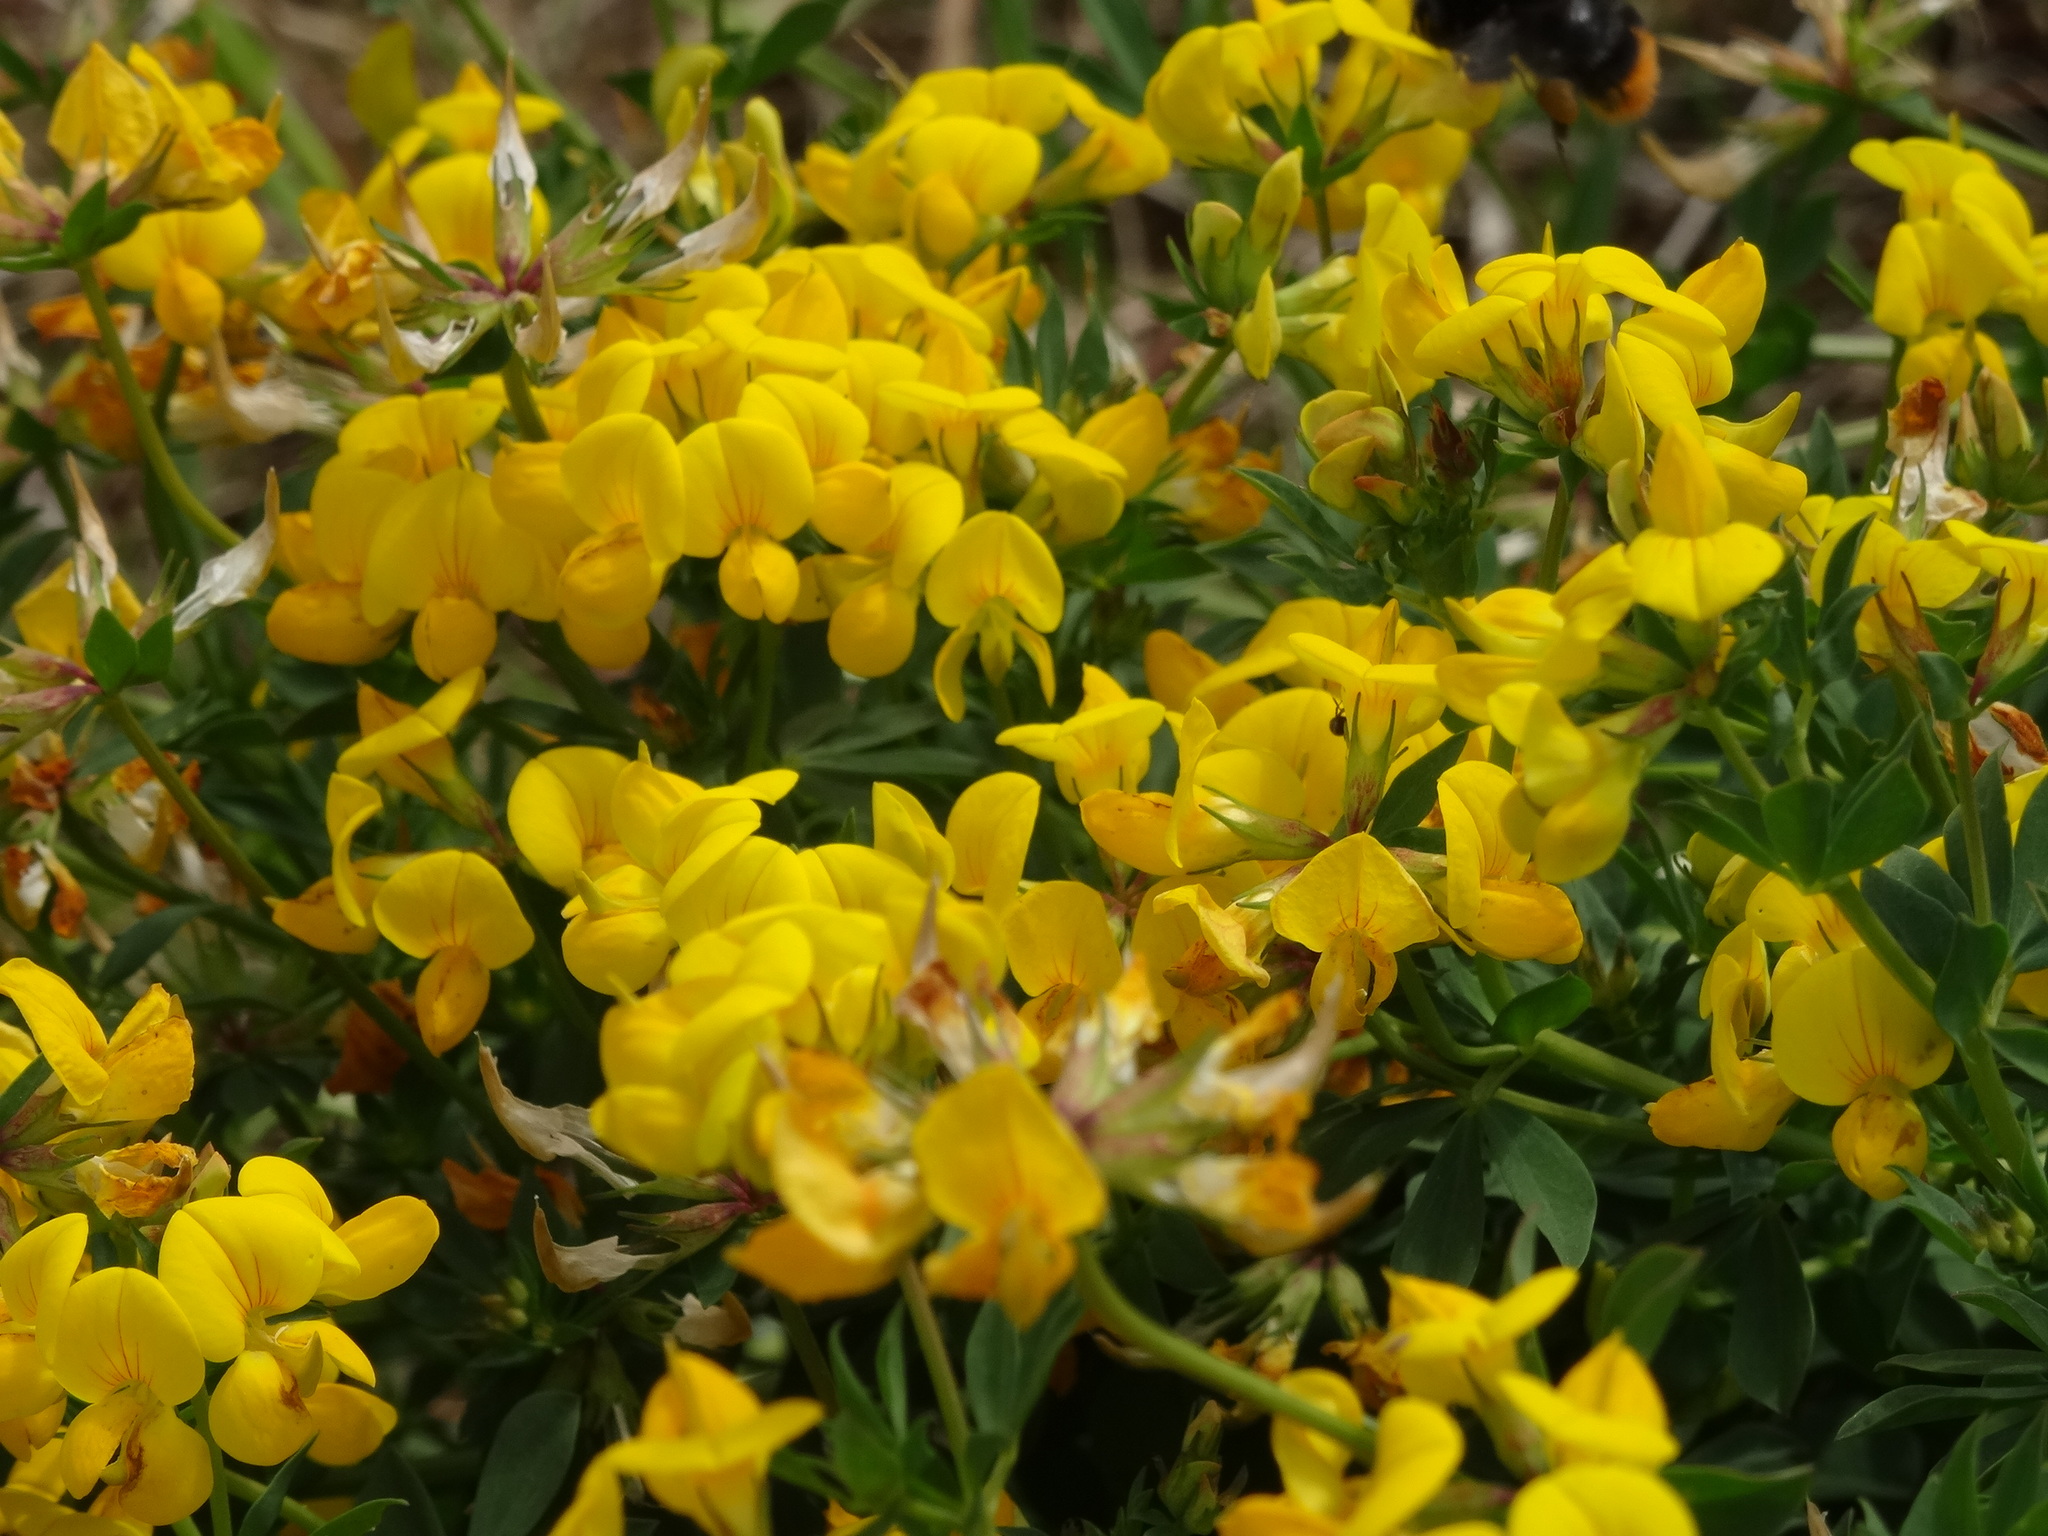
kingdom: Plantae
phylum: Tracheophyta
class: Magnoliopsida
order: Fabales
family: Fabaceae
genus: Lotus
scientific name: Lotus corniculatus
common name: Common bird's-foot-trefoil
